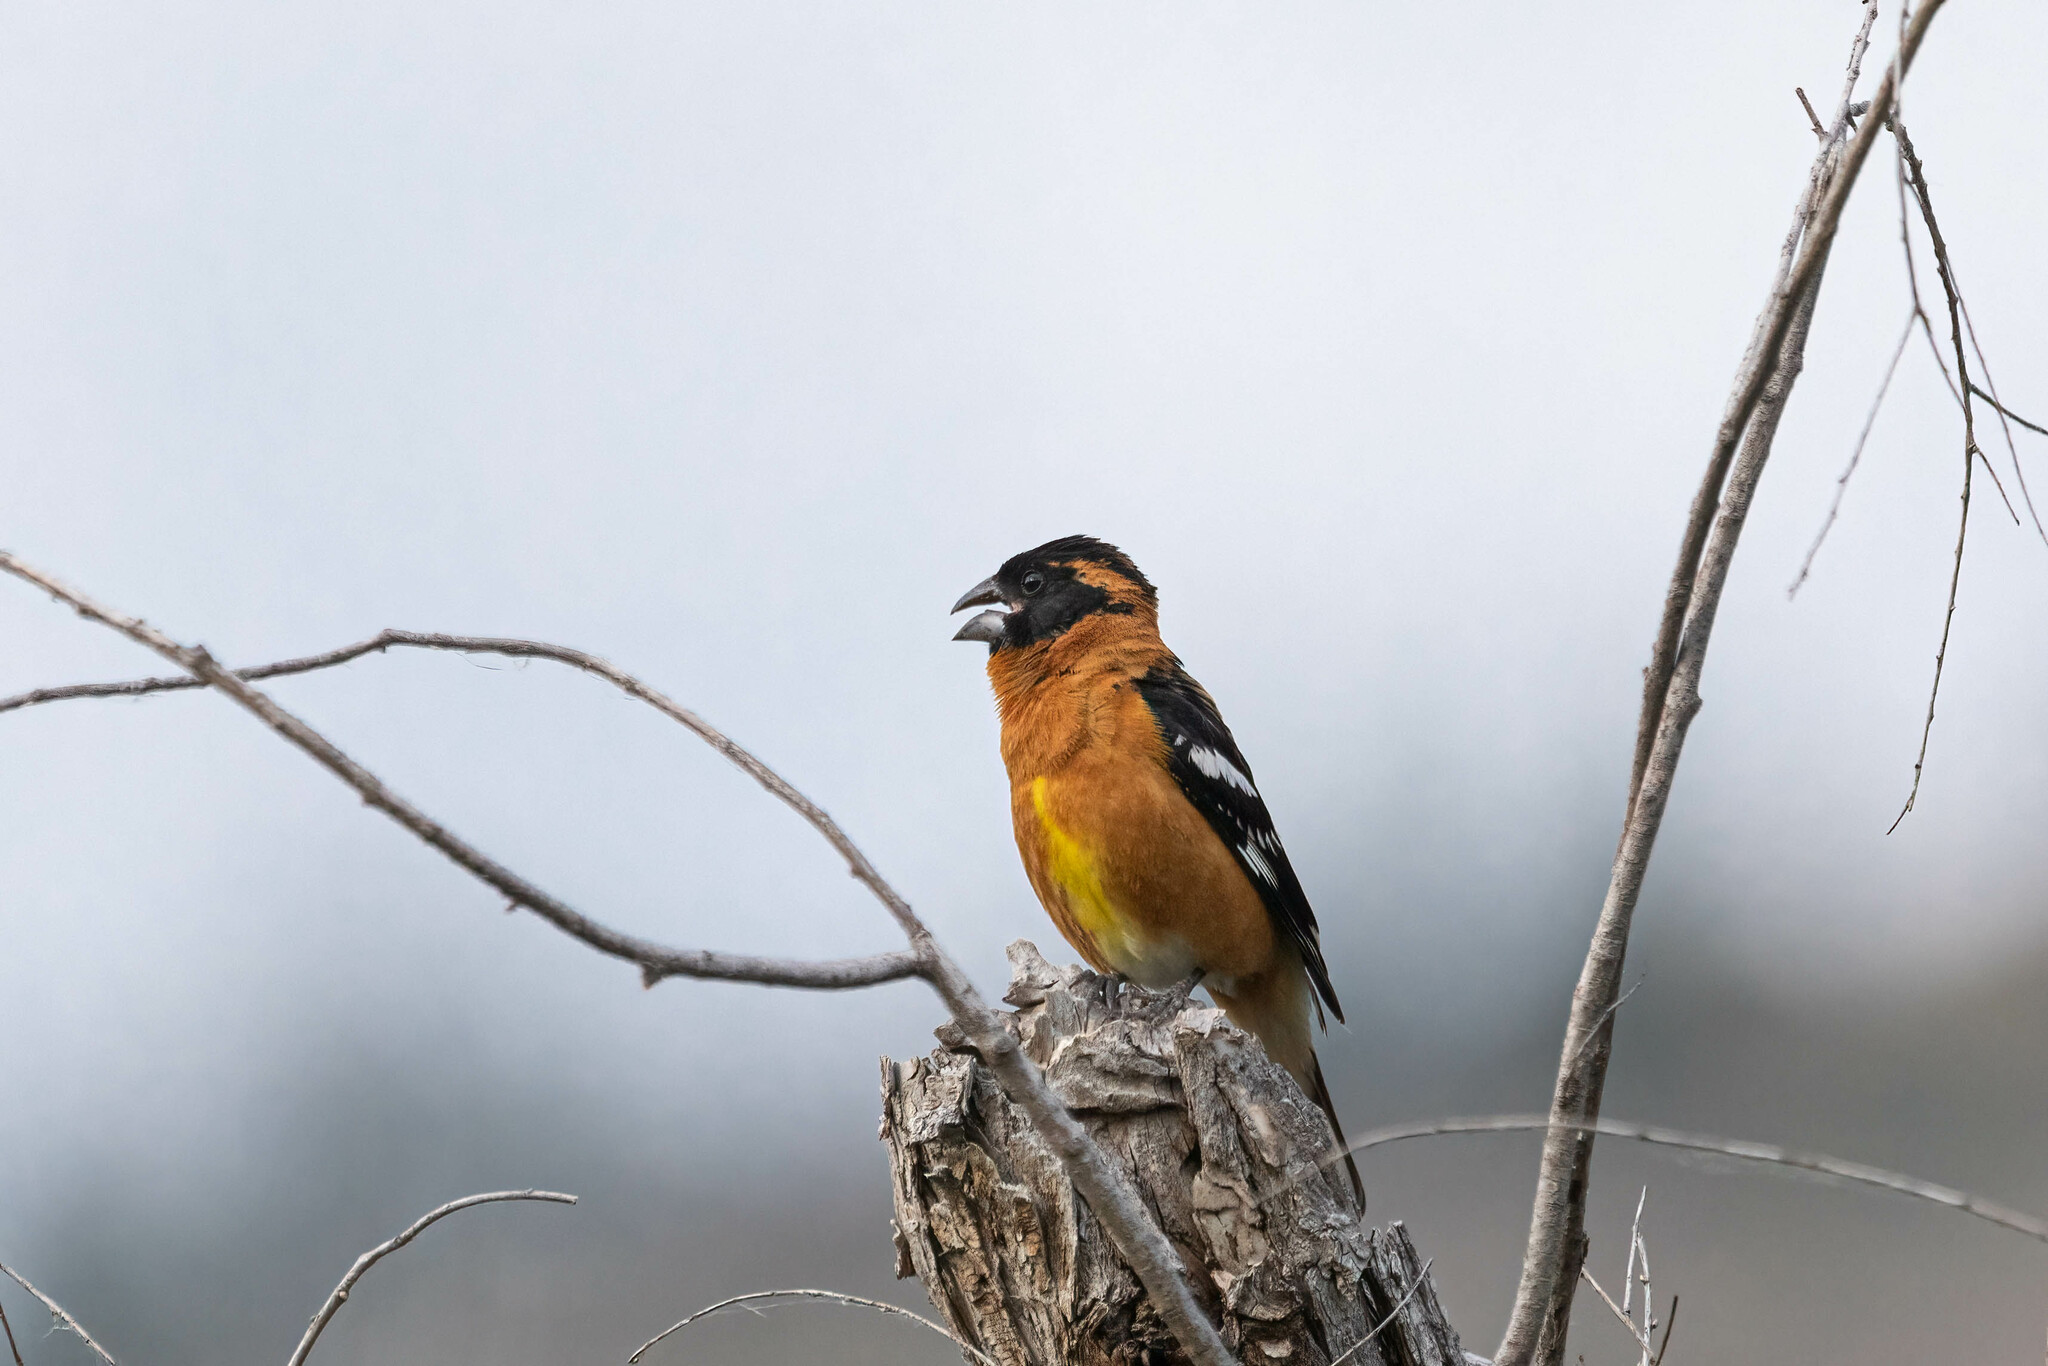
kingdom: Animalia
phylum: Chordata
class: Aves
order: Passeriformes
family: Cardinalidae
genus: Pheucticus
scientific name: Pheucticus melanocephalus
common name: Black-headed grosbeak
